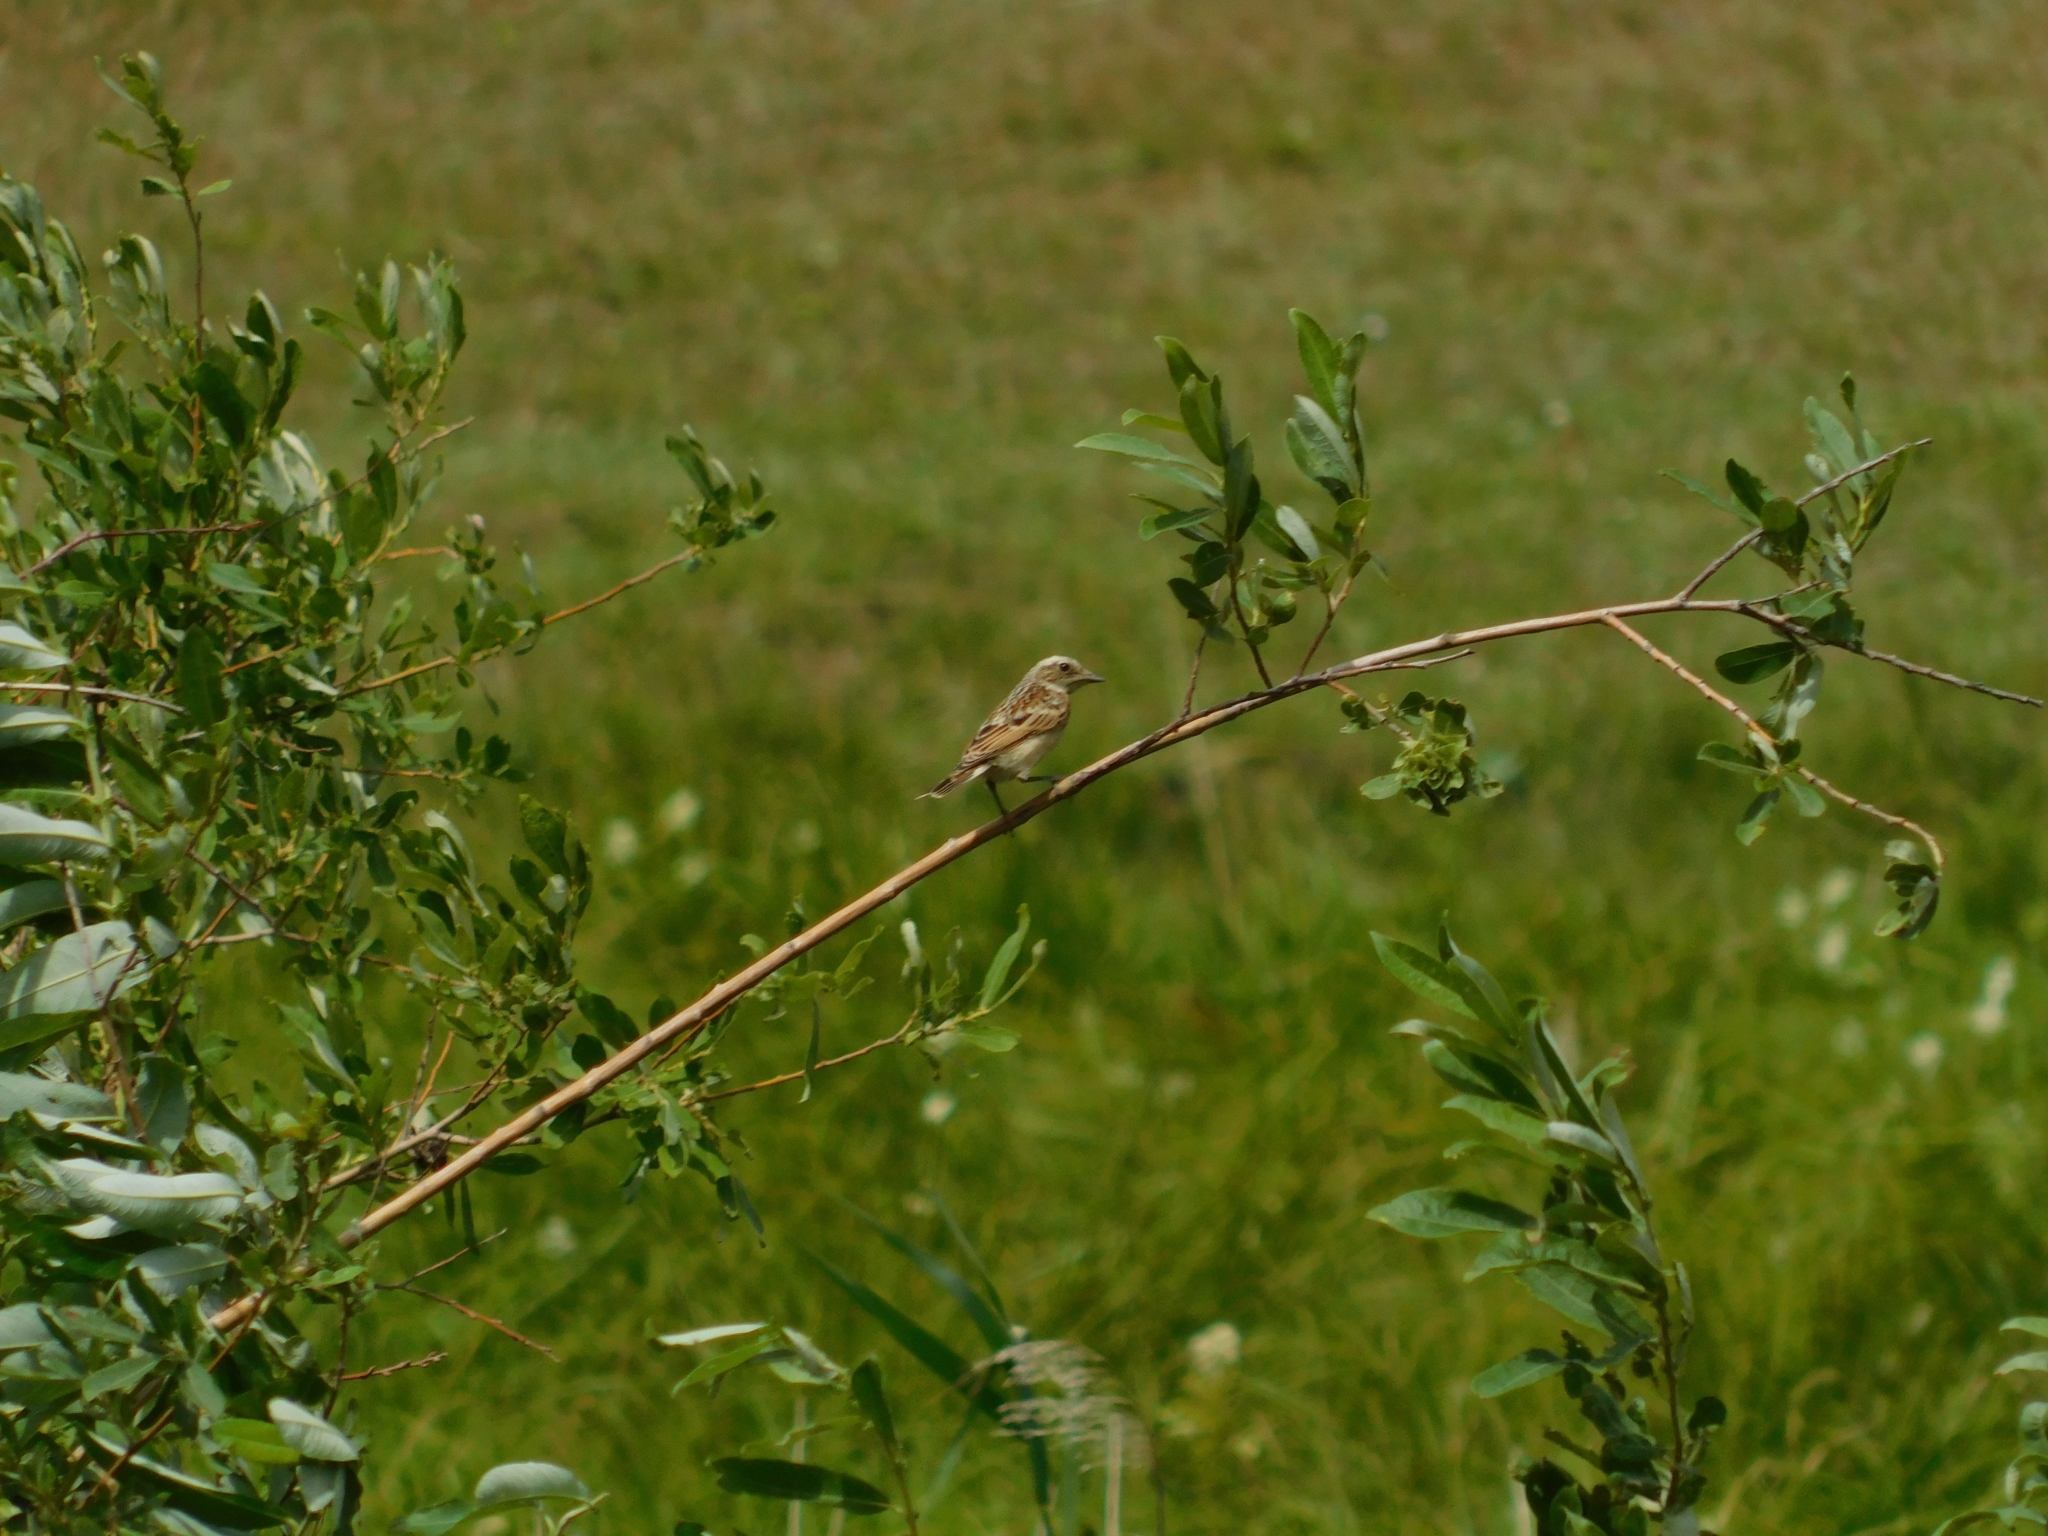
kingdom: Animalia
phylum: Chordata
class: Aves
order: Passeriformes
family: Muscicapidae
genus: Saxicola
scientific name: Saxicola rubetra
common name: Whinchat
